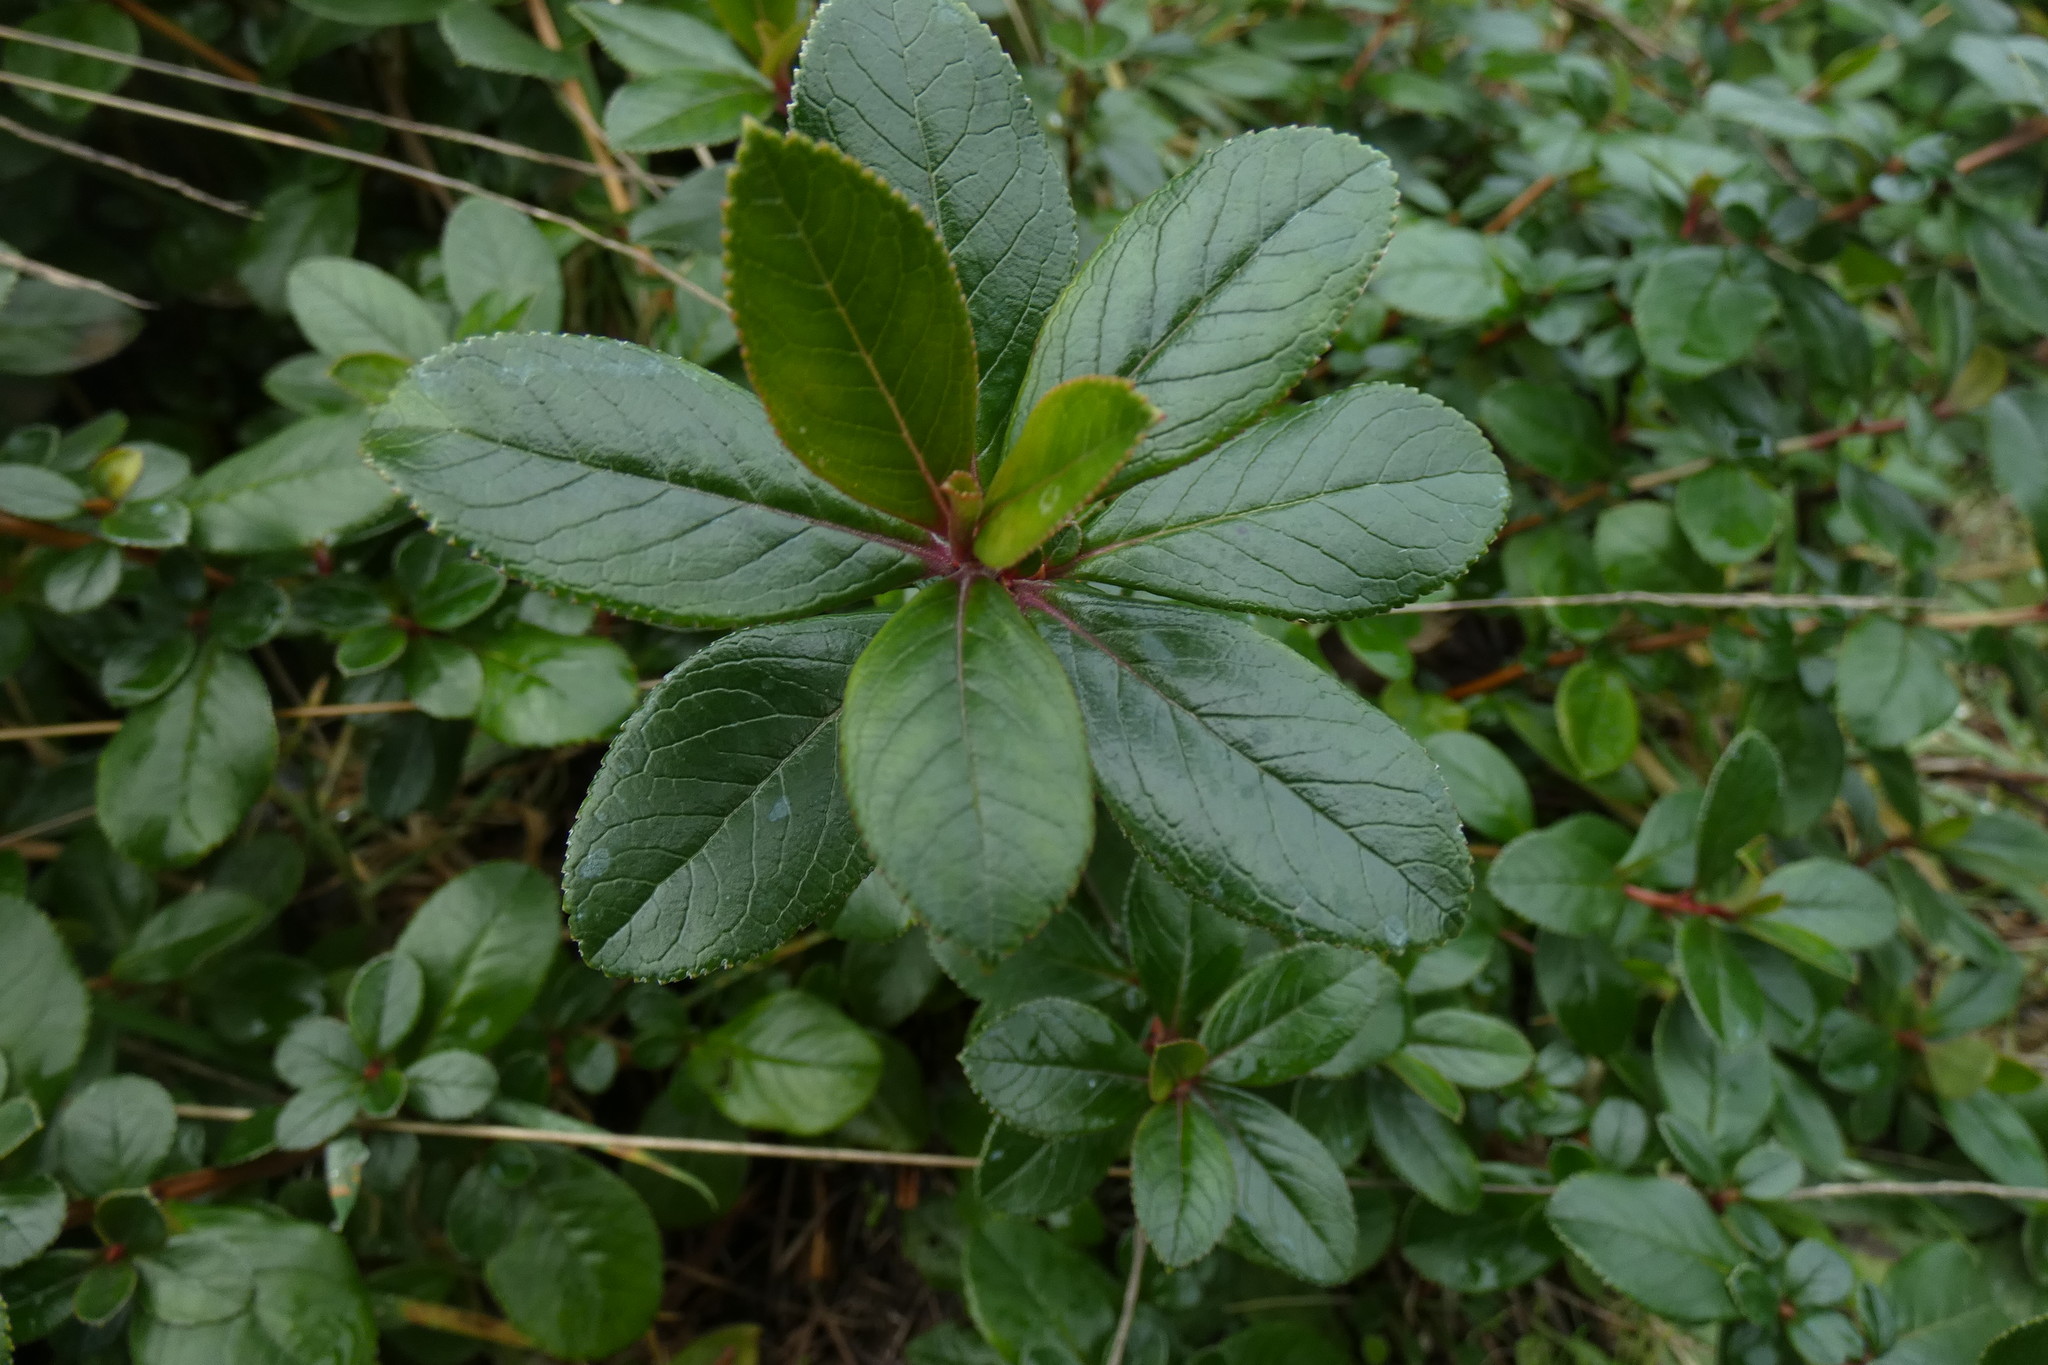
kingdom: Plantae
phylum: Tracheophyta
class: Magnoliopsida
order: Escalloniales
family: Escalloniaceae
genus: Escallonia
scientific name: Escallonia rubra
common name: Redclaws
